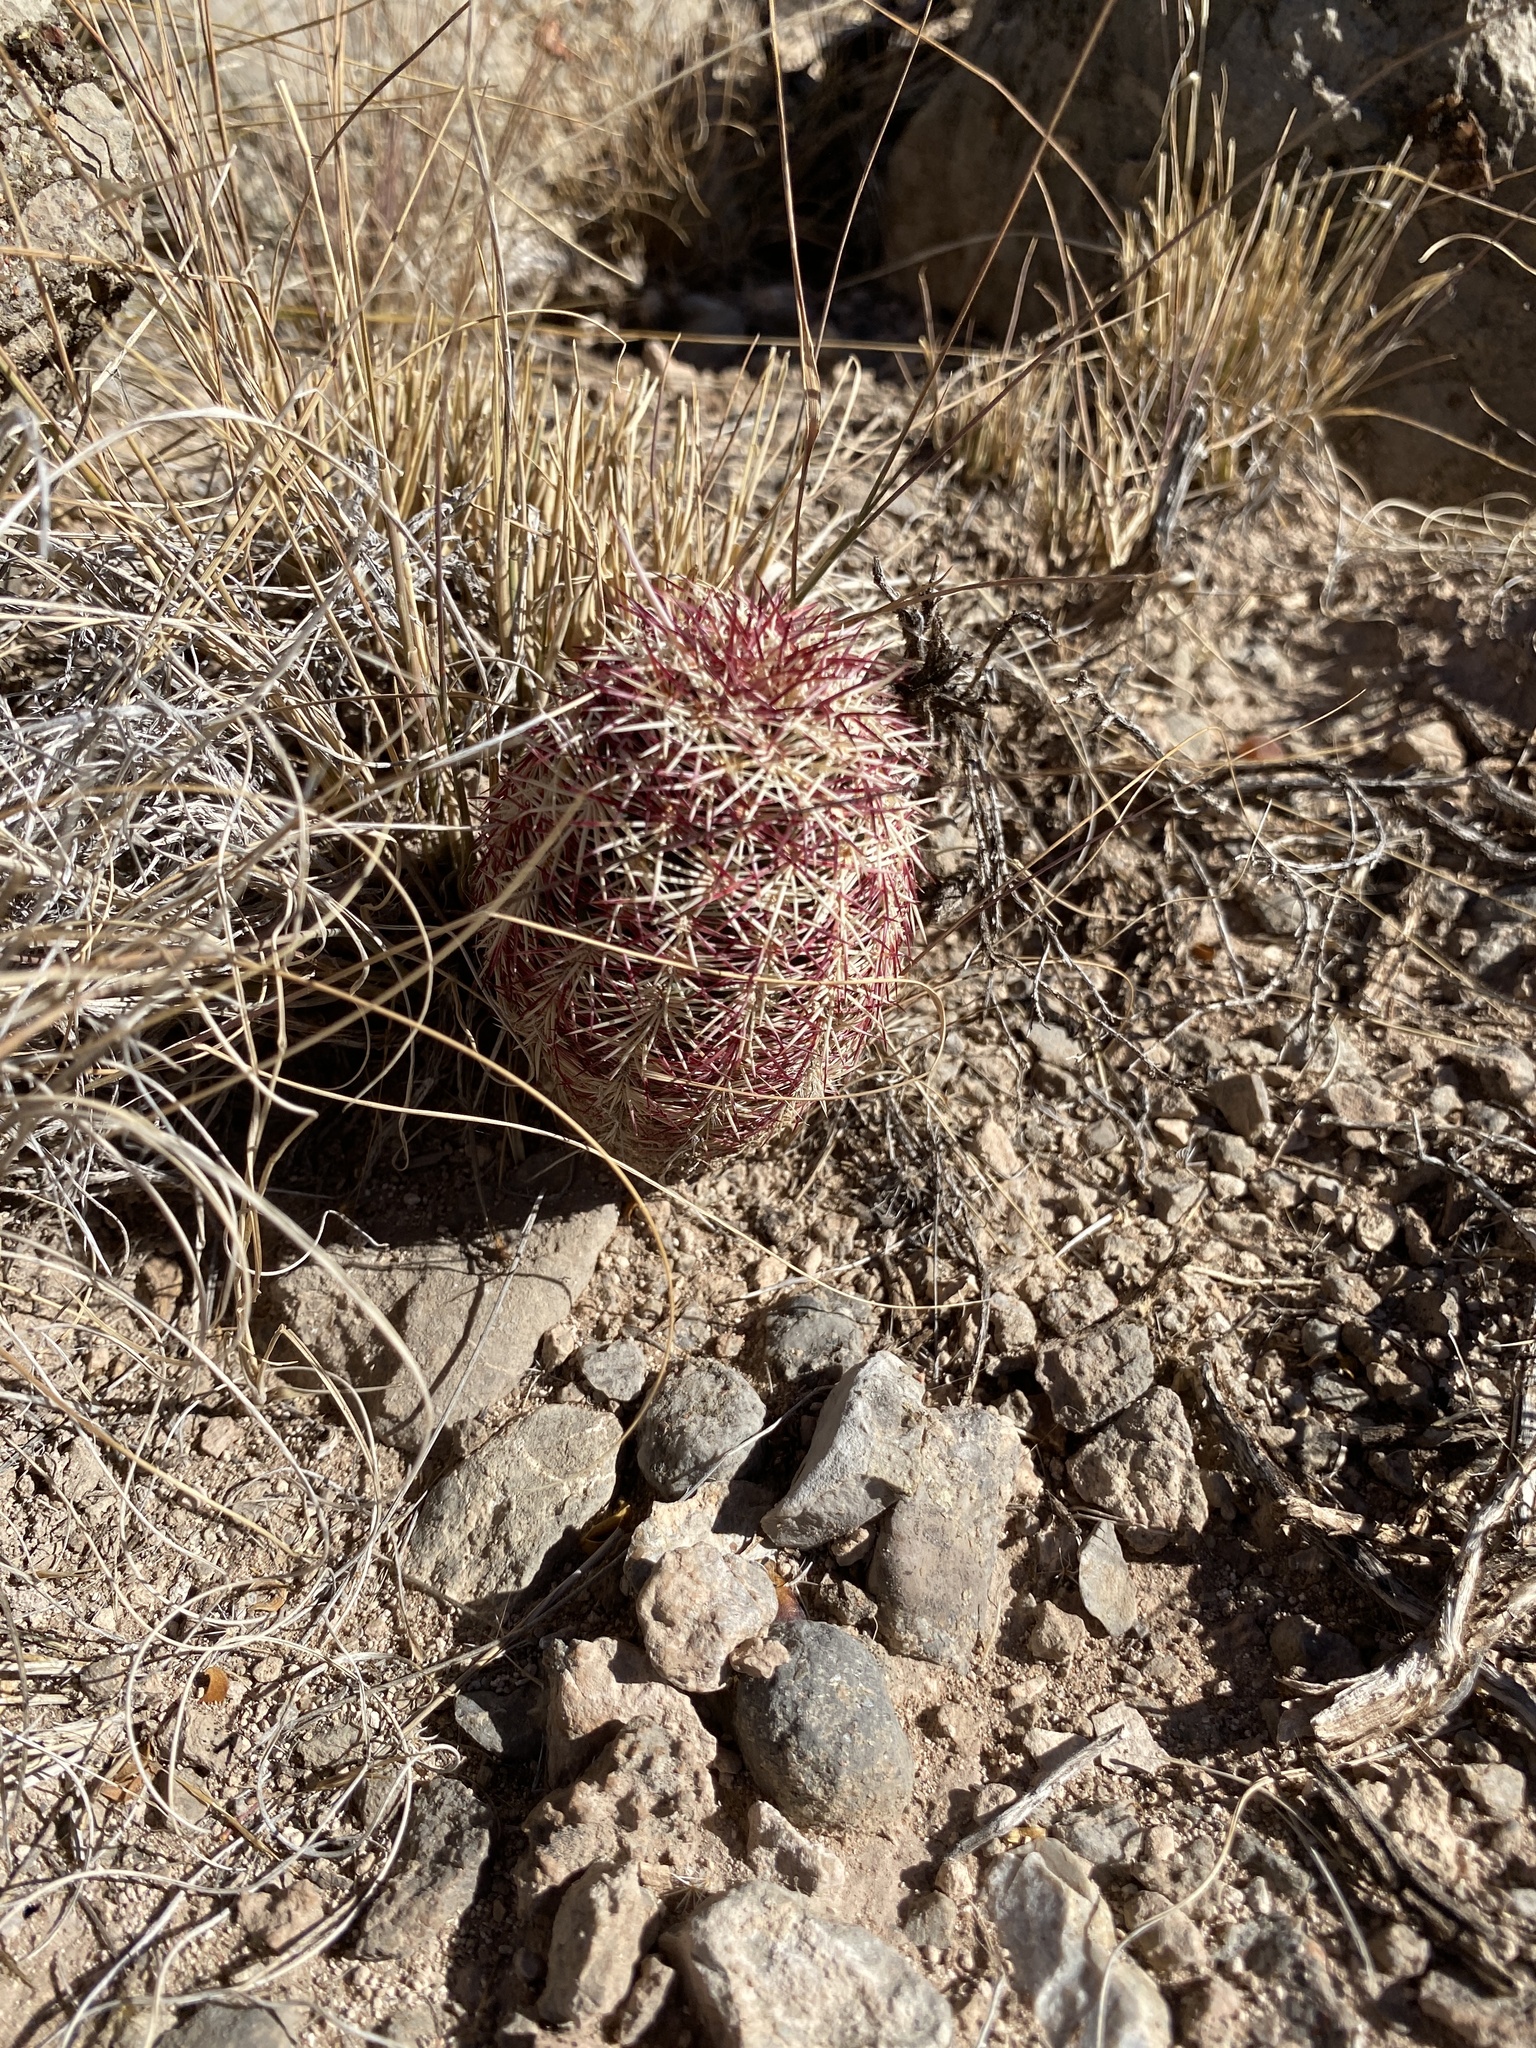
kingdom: Plantae
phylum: Tracheophyta
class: Magnoliopsida
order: Caryophyllales
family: Cactaceae
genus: Echinocereus
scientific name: Echinocereus viridiflorus
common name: Nylon hedgehog cactus
